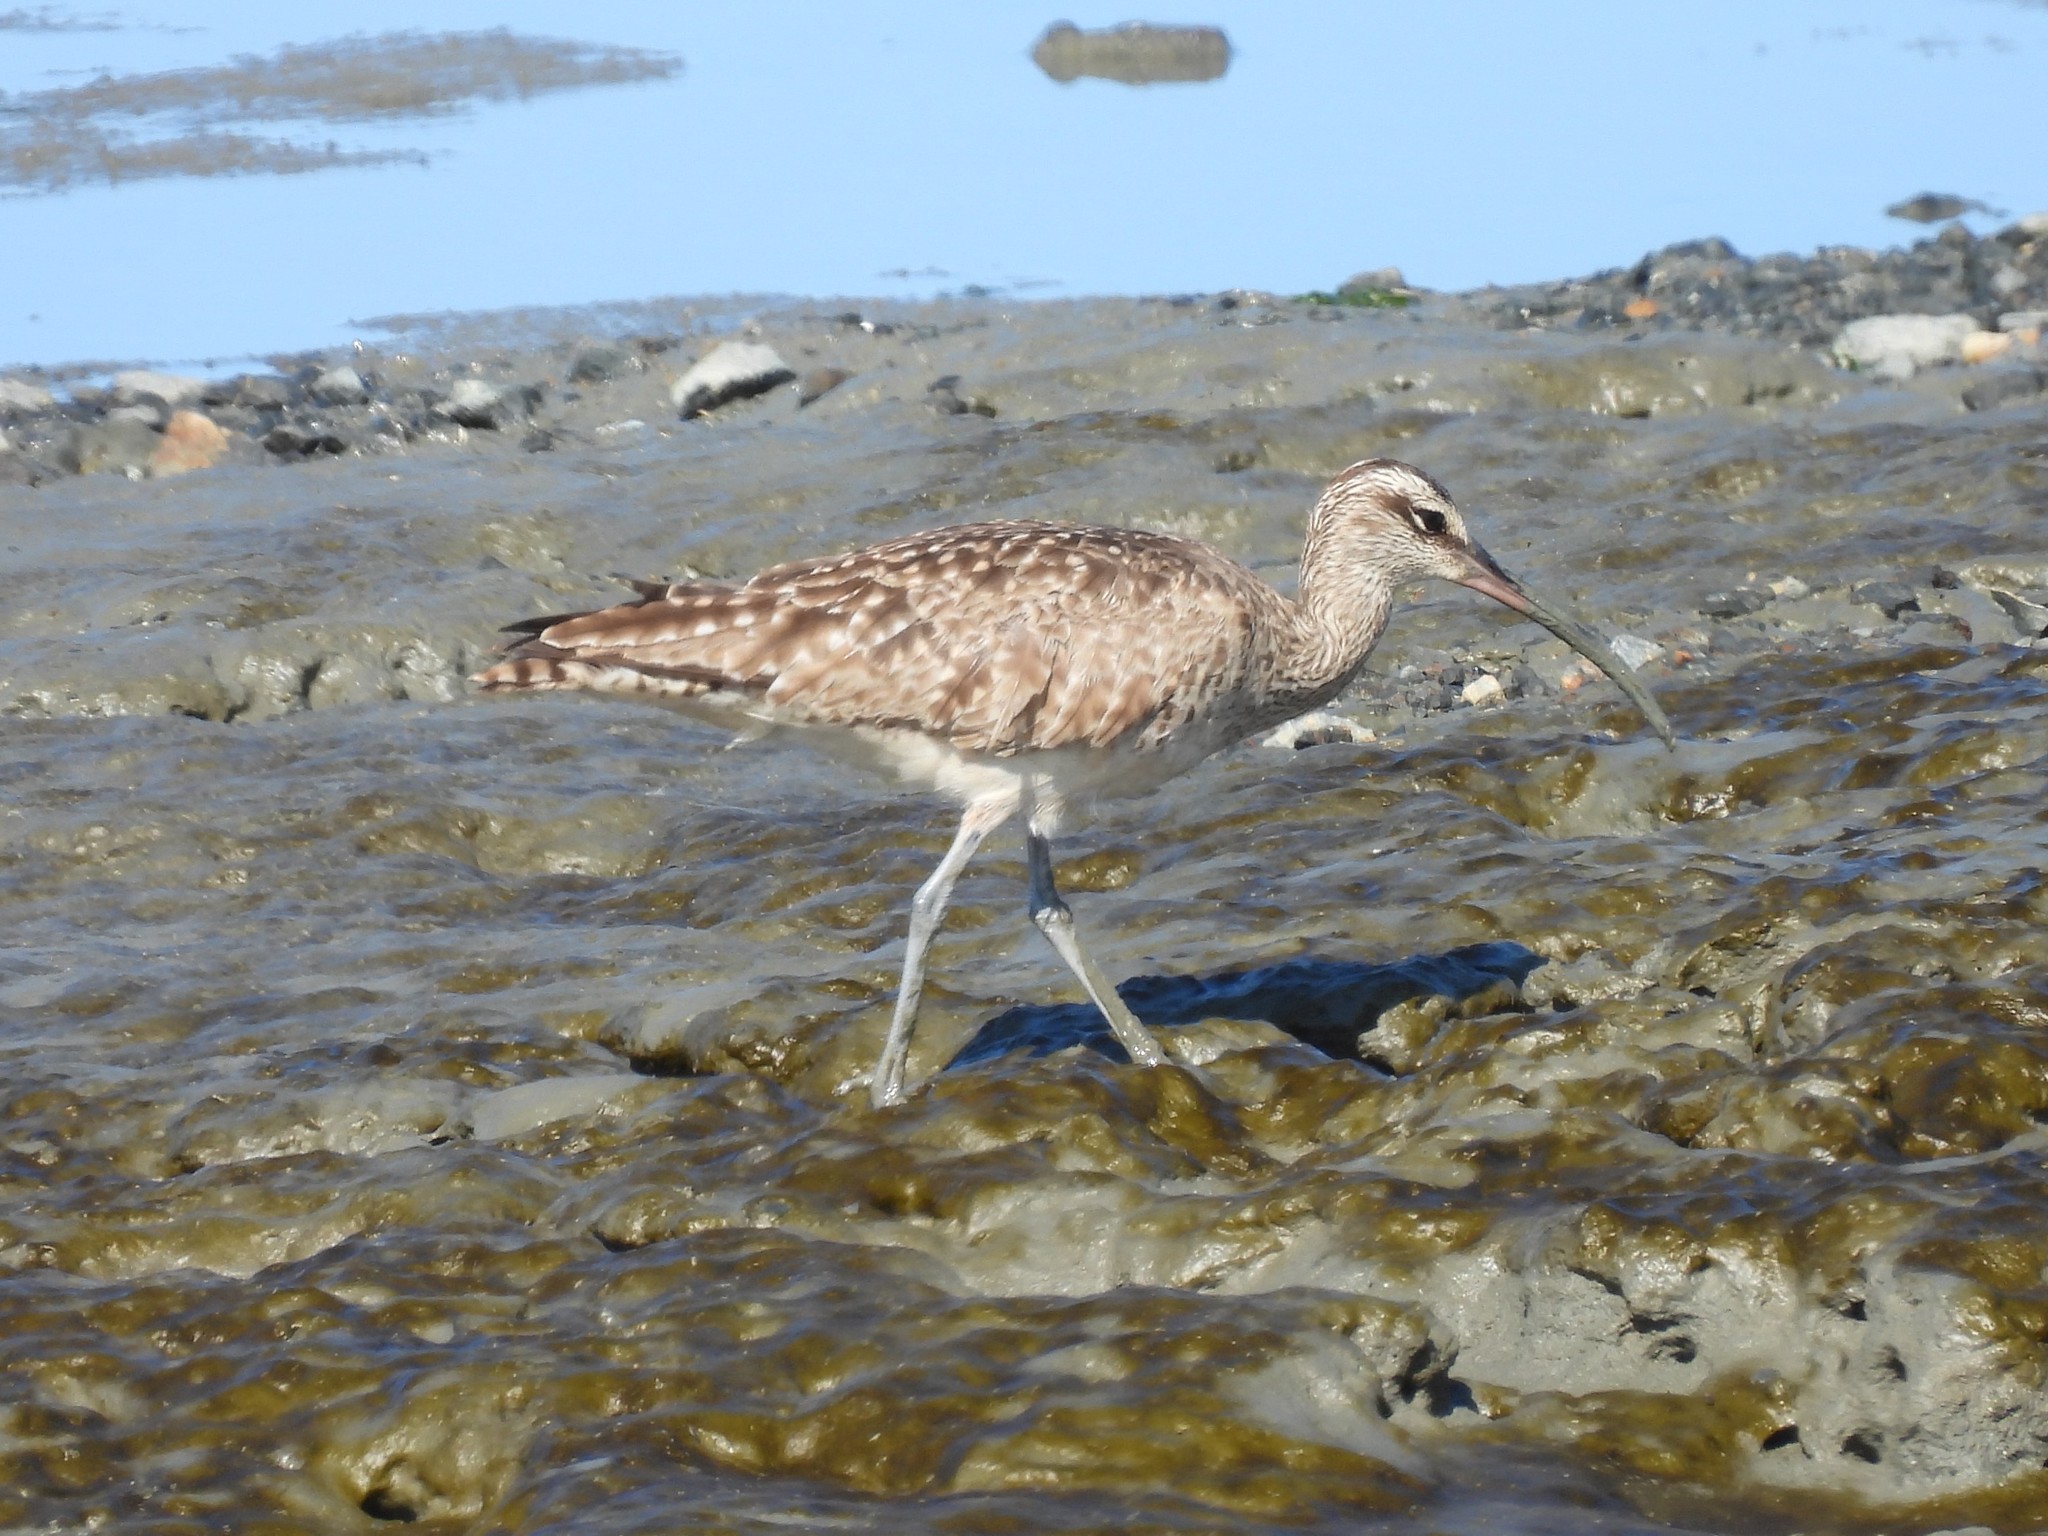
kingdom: Animalia
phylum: Chordata
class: Aves
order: Charadriiformes
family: Scolopacidae
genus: Numenius
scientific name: Numenius phaeopus
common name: Whimbrel
